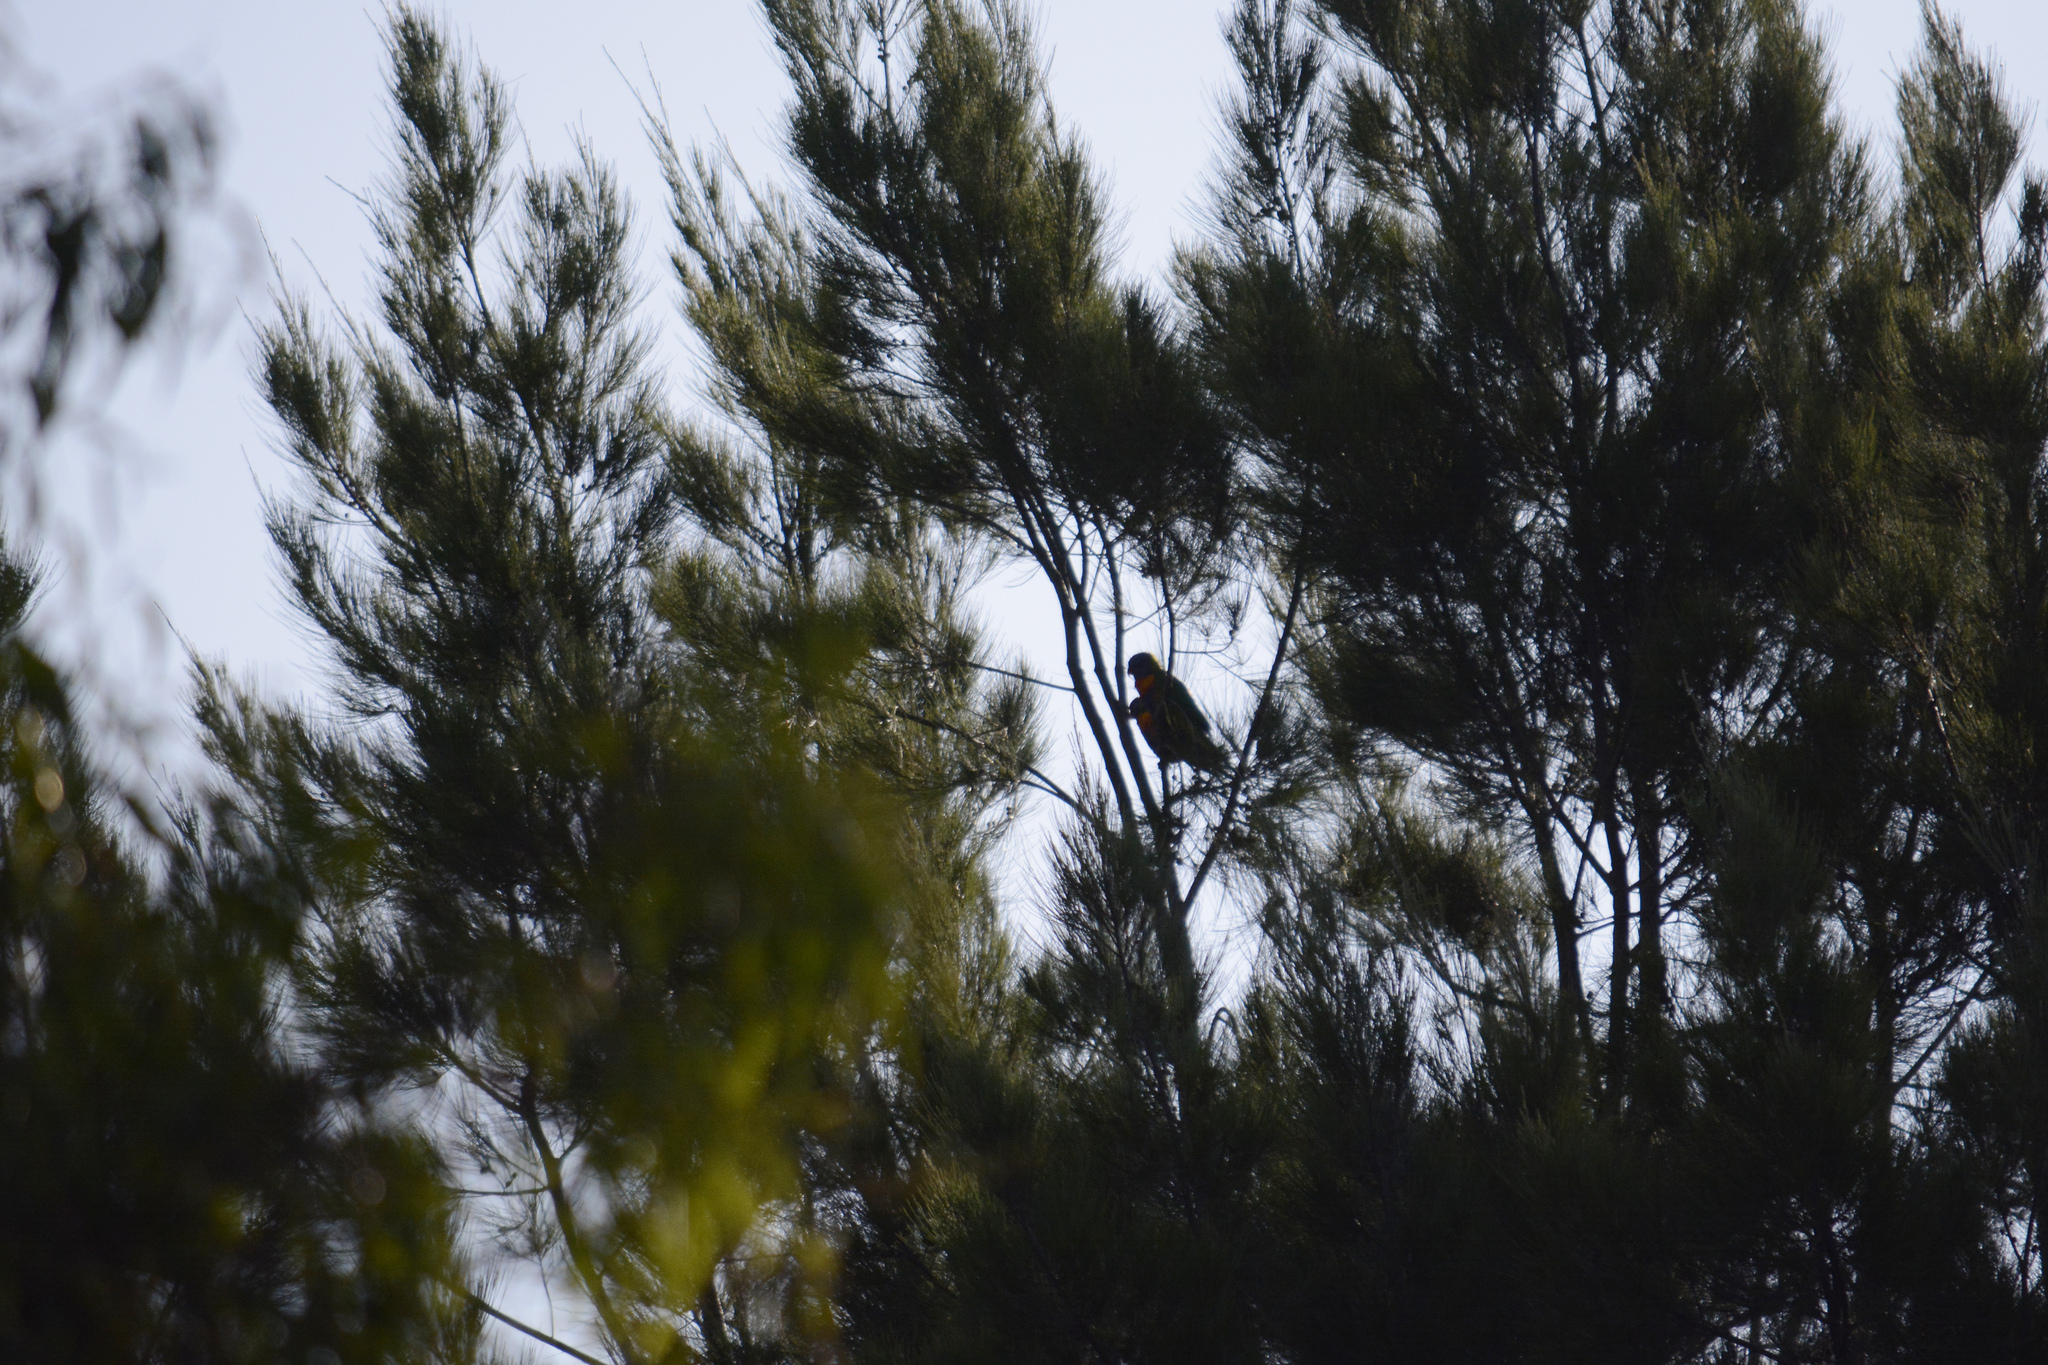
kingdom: Animalia
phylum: Chordata
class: Aves
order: Psittaciformes
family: Psittacidae
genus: Trichoglossus
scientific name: Trichoglossus haematodus
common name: Coconut lorikeet
